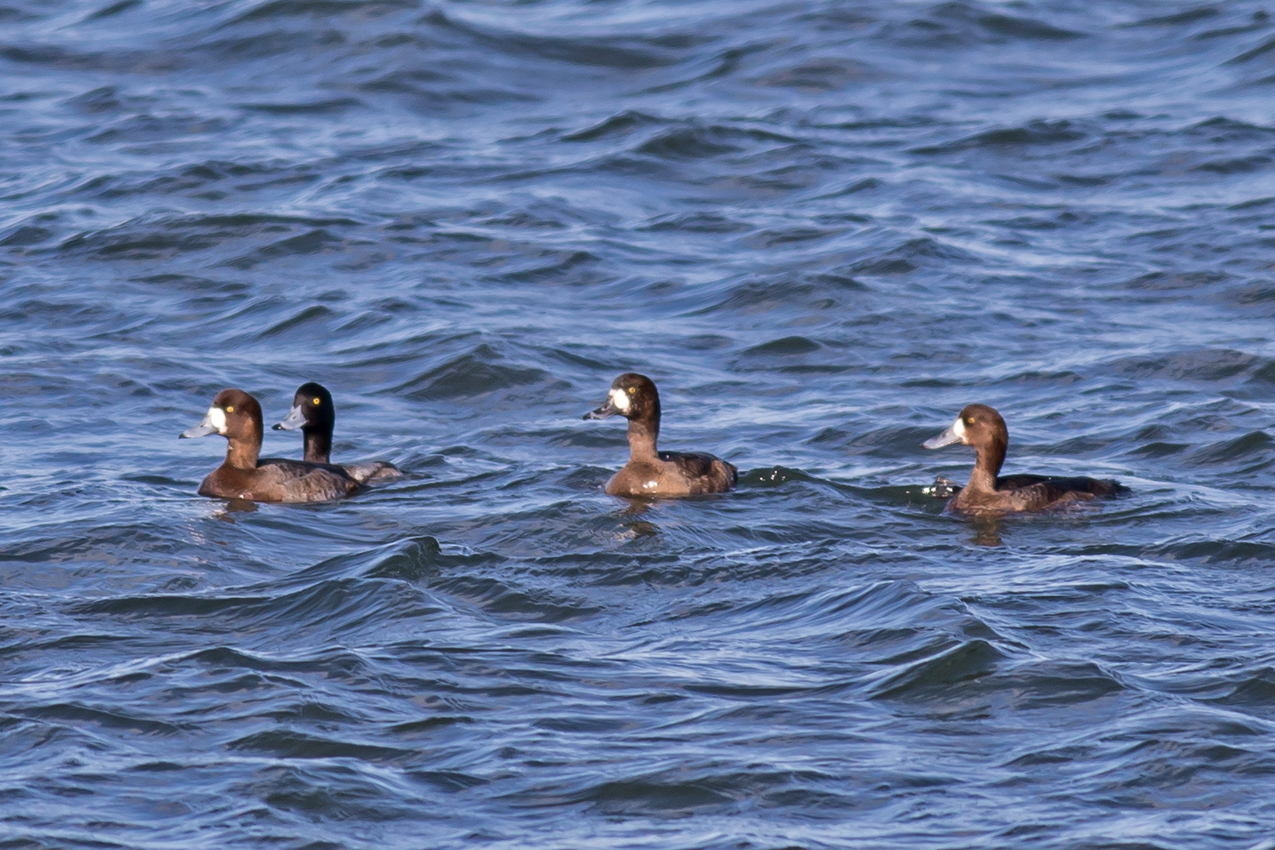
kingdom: Animalia
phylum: Chordata
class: Aves
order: Anseriformes
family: Anatidae
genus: Aythya
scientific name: Aythya marila
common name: Greater scaup
